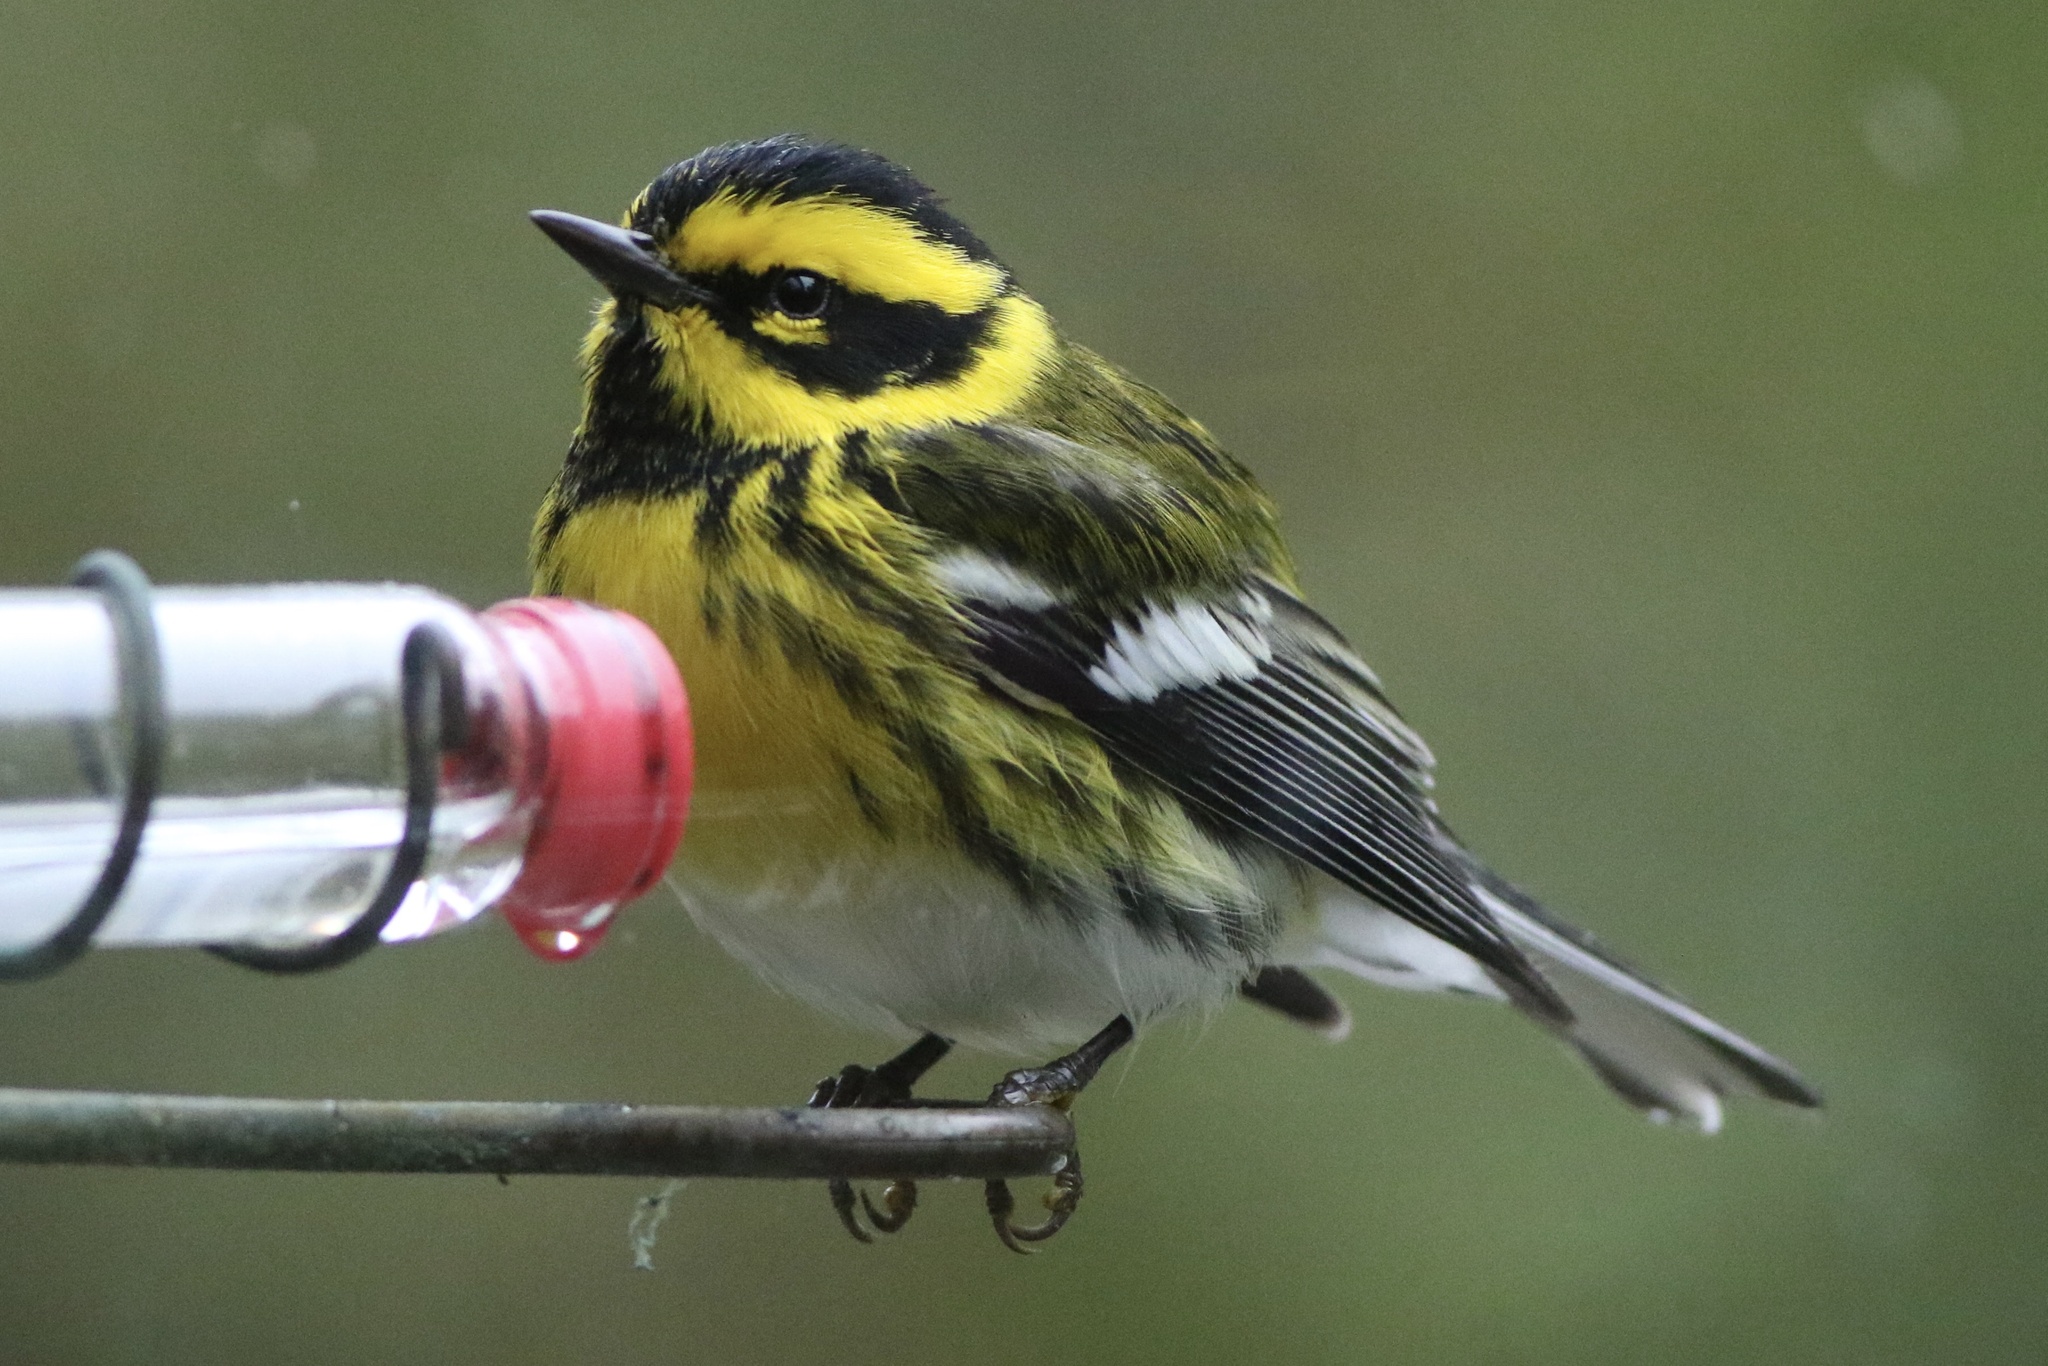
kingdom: Animalia
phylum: Chordata
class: Aves
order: Passeriformes
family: Parulidae
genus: Setophaga
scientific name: Setophaga townsendi
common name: Townsend's warbler
